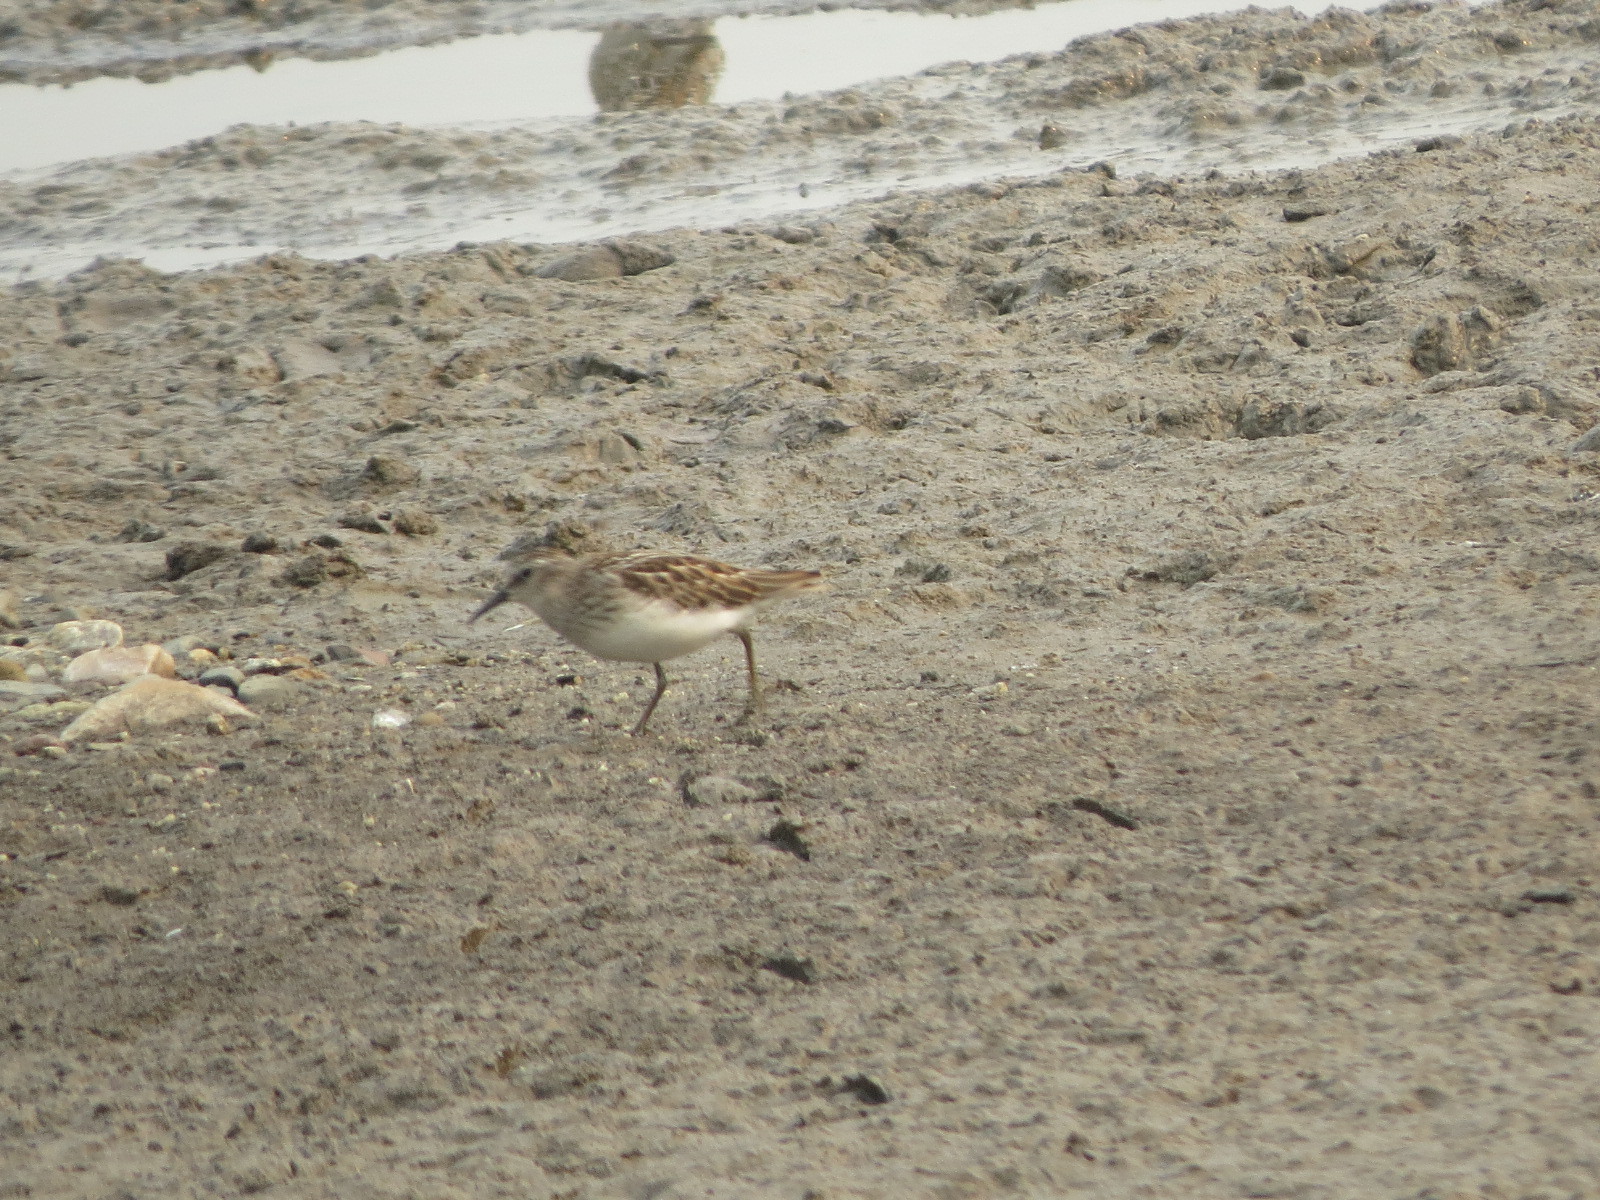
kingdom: Animalia
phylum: Chordata
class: Aves
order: Charadriiformes
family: Scolopacidae
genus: Calidris
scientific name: Calidris minutilla
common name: Least sandpiper
